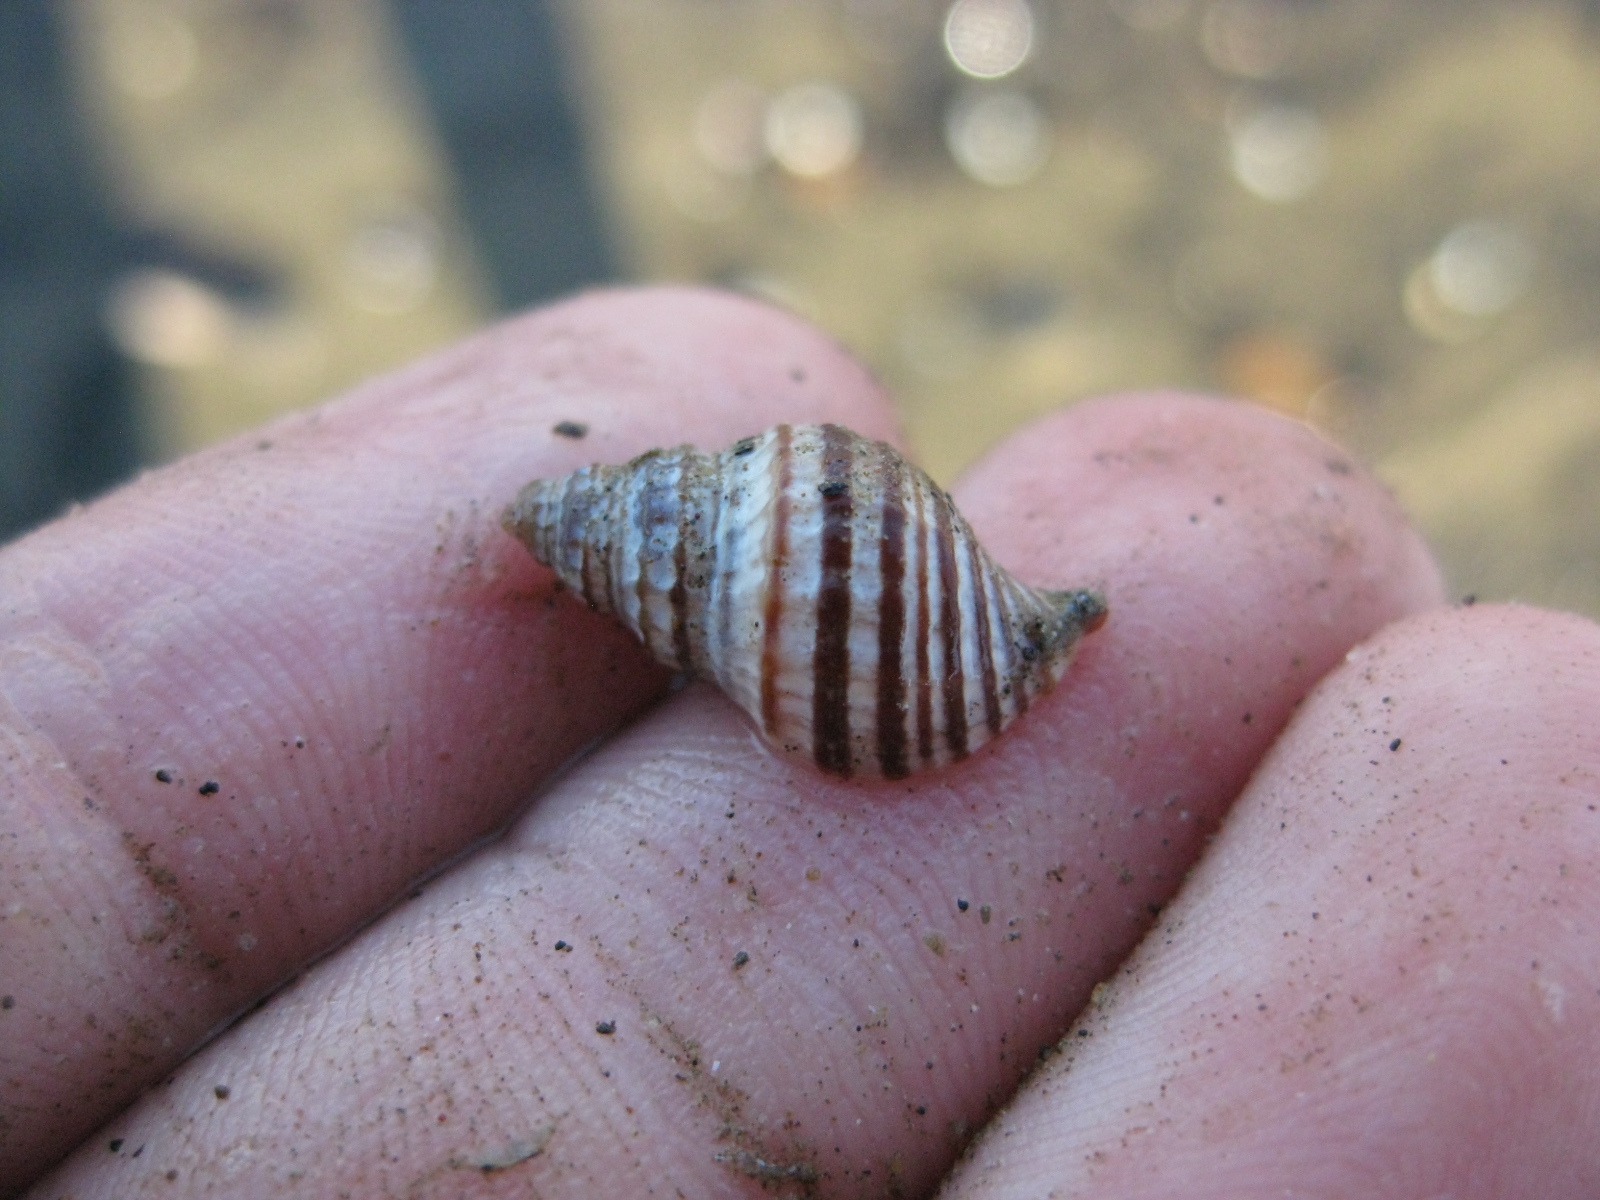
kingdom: Animalia
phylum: Mollusca
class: Gastropoda
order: Neogastropoda
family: Muricidae
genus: Xymene
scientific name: Xymene plebeius
